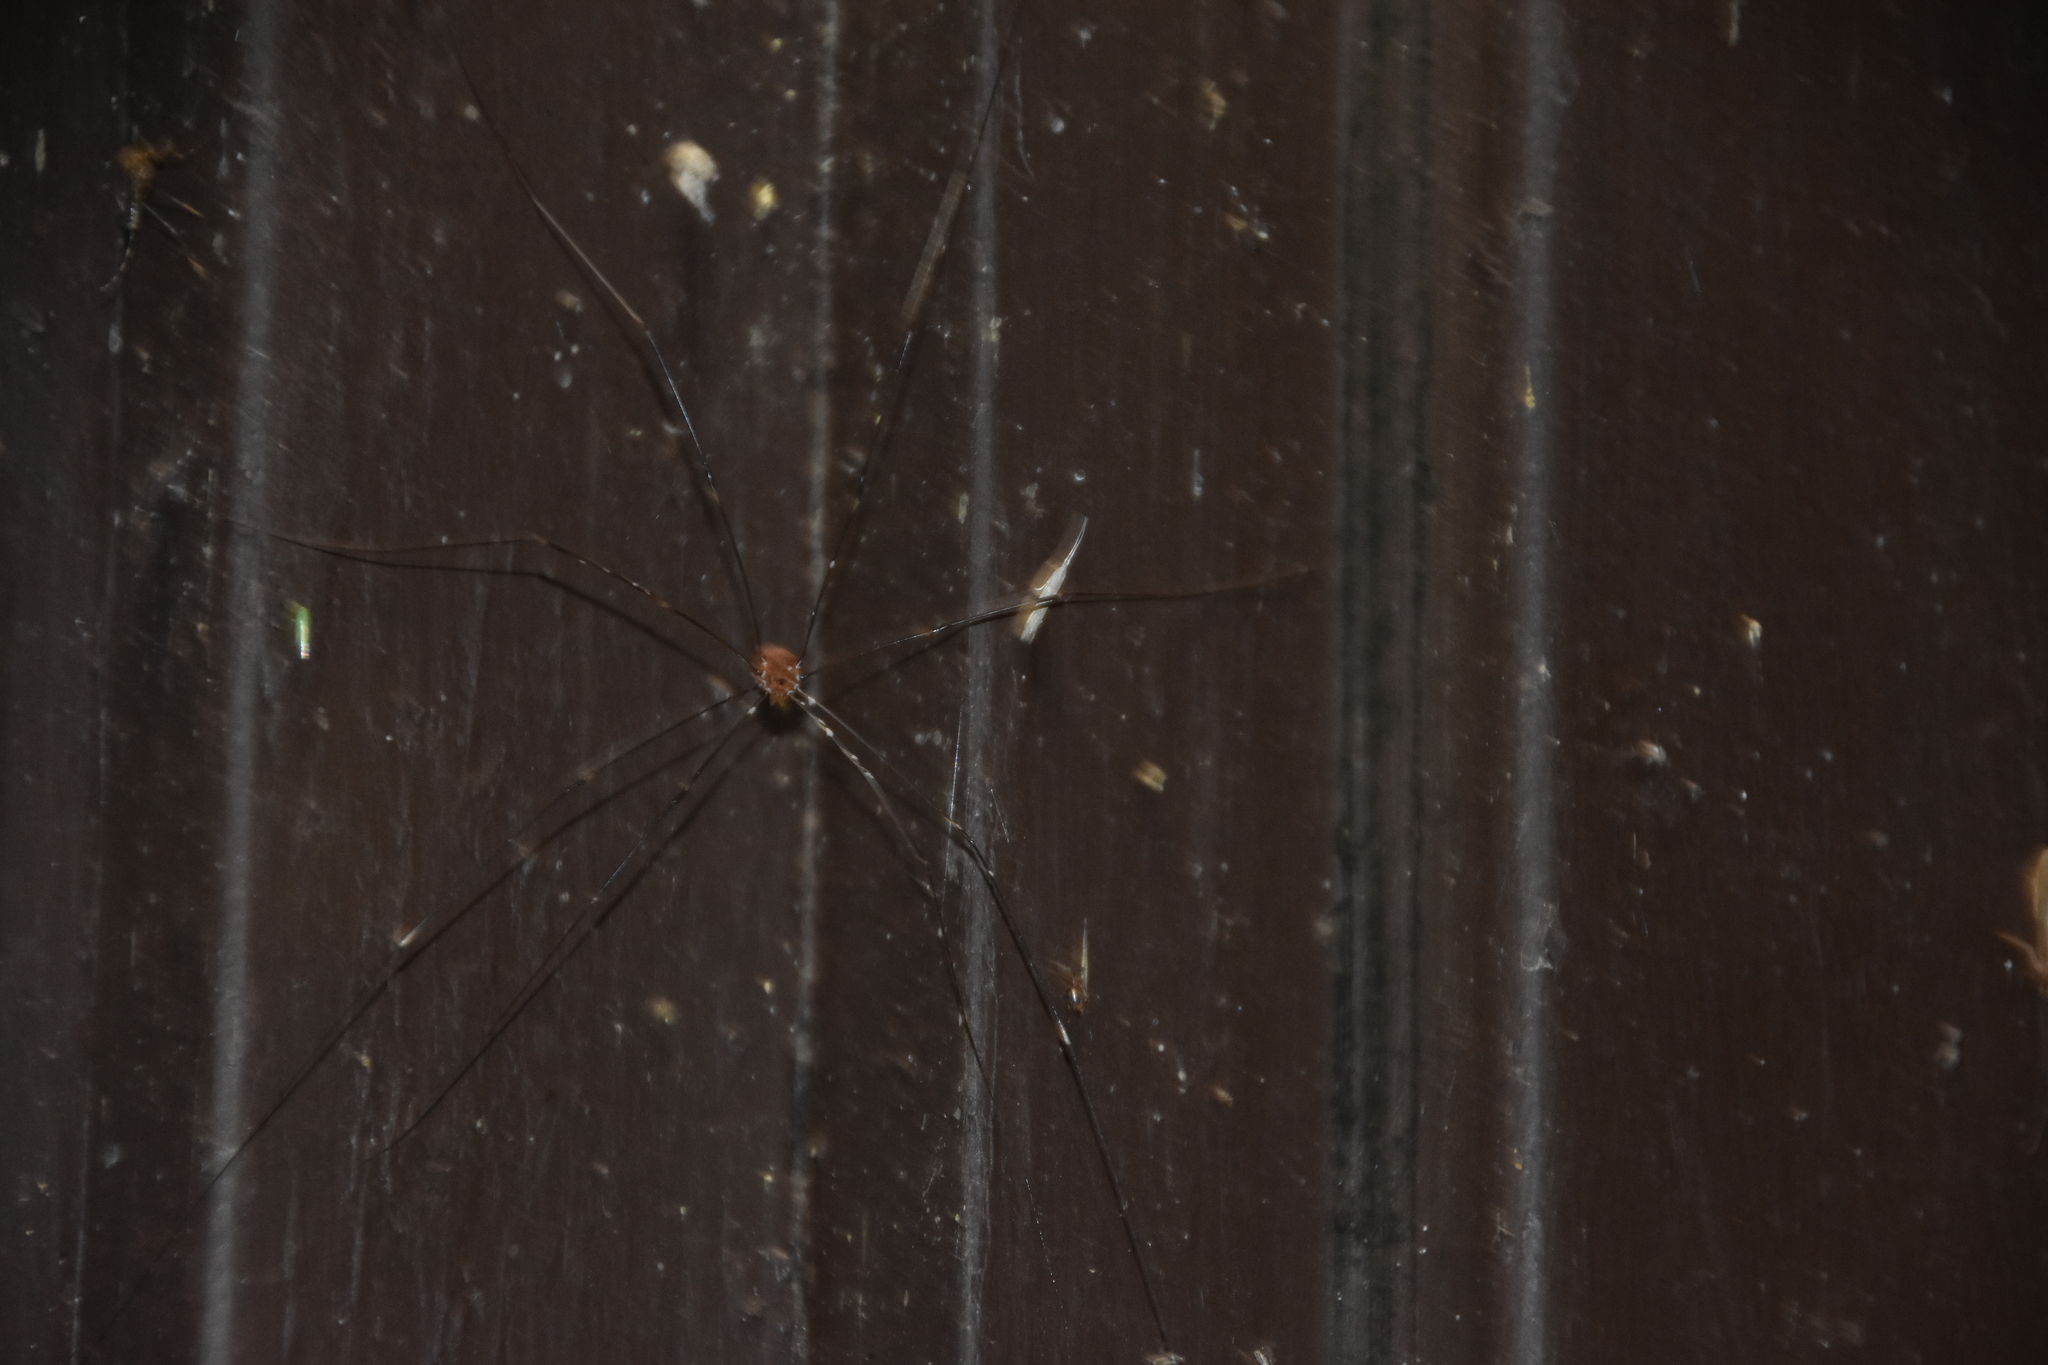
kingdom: Animalia
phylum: Arthropoda
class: Arachnida
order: Opiliones
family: Sclerosomatidae
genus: Leiobunum
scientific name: Leiobunum vittatum
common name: Eastern harvestman
